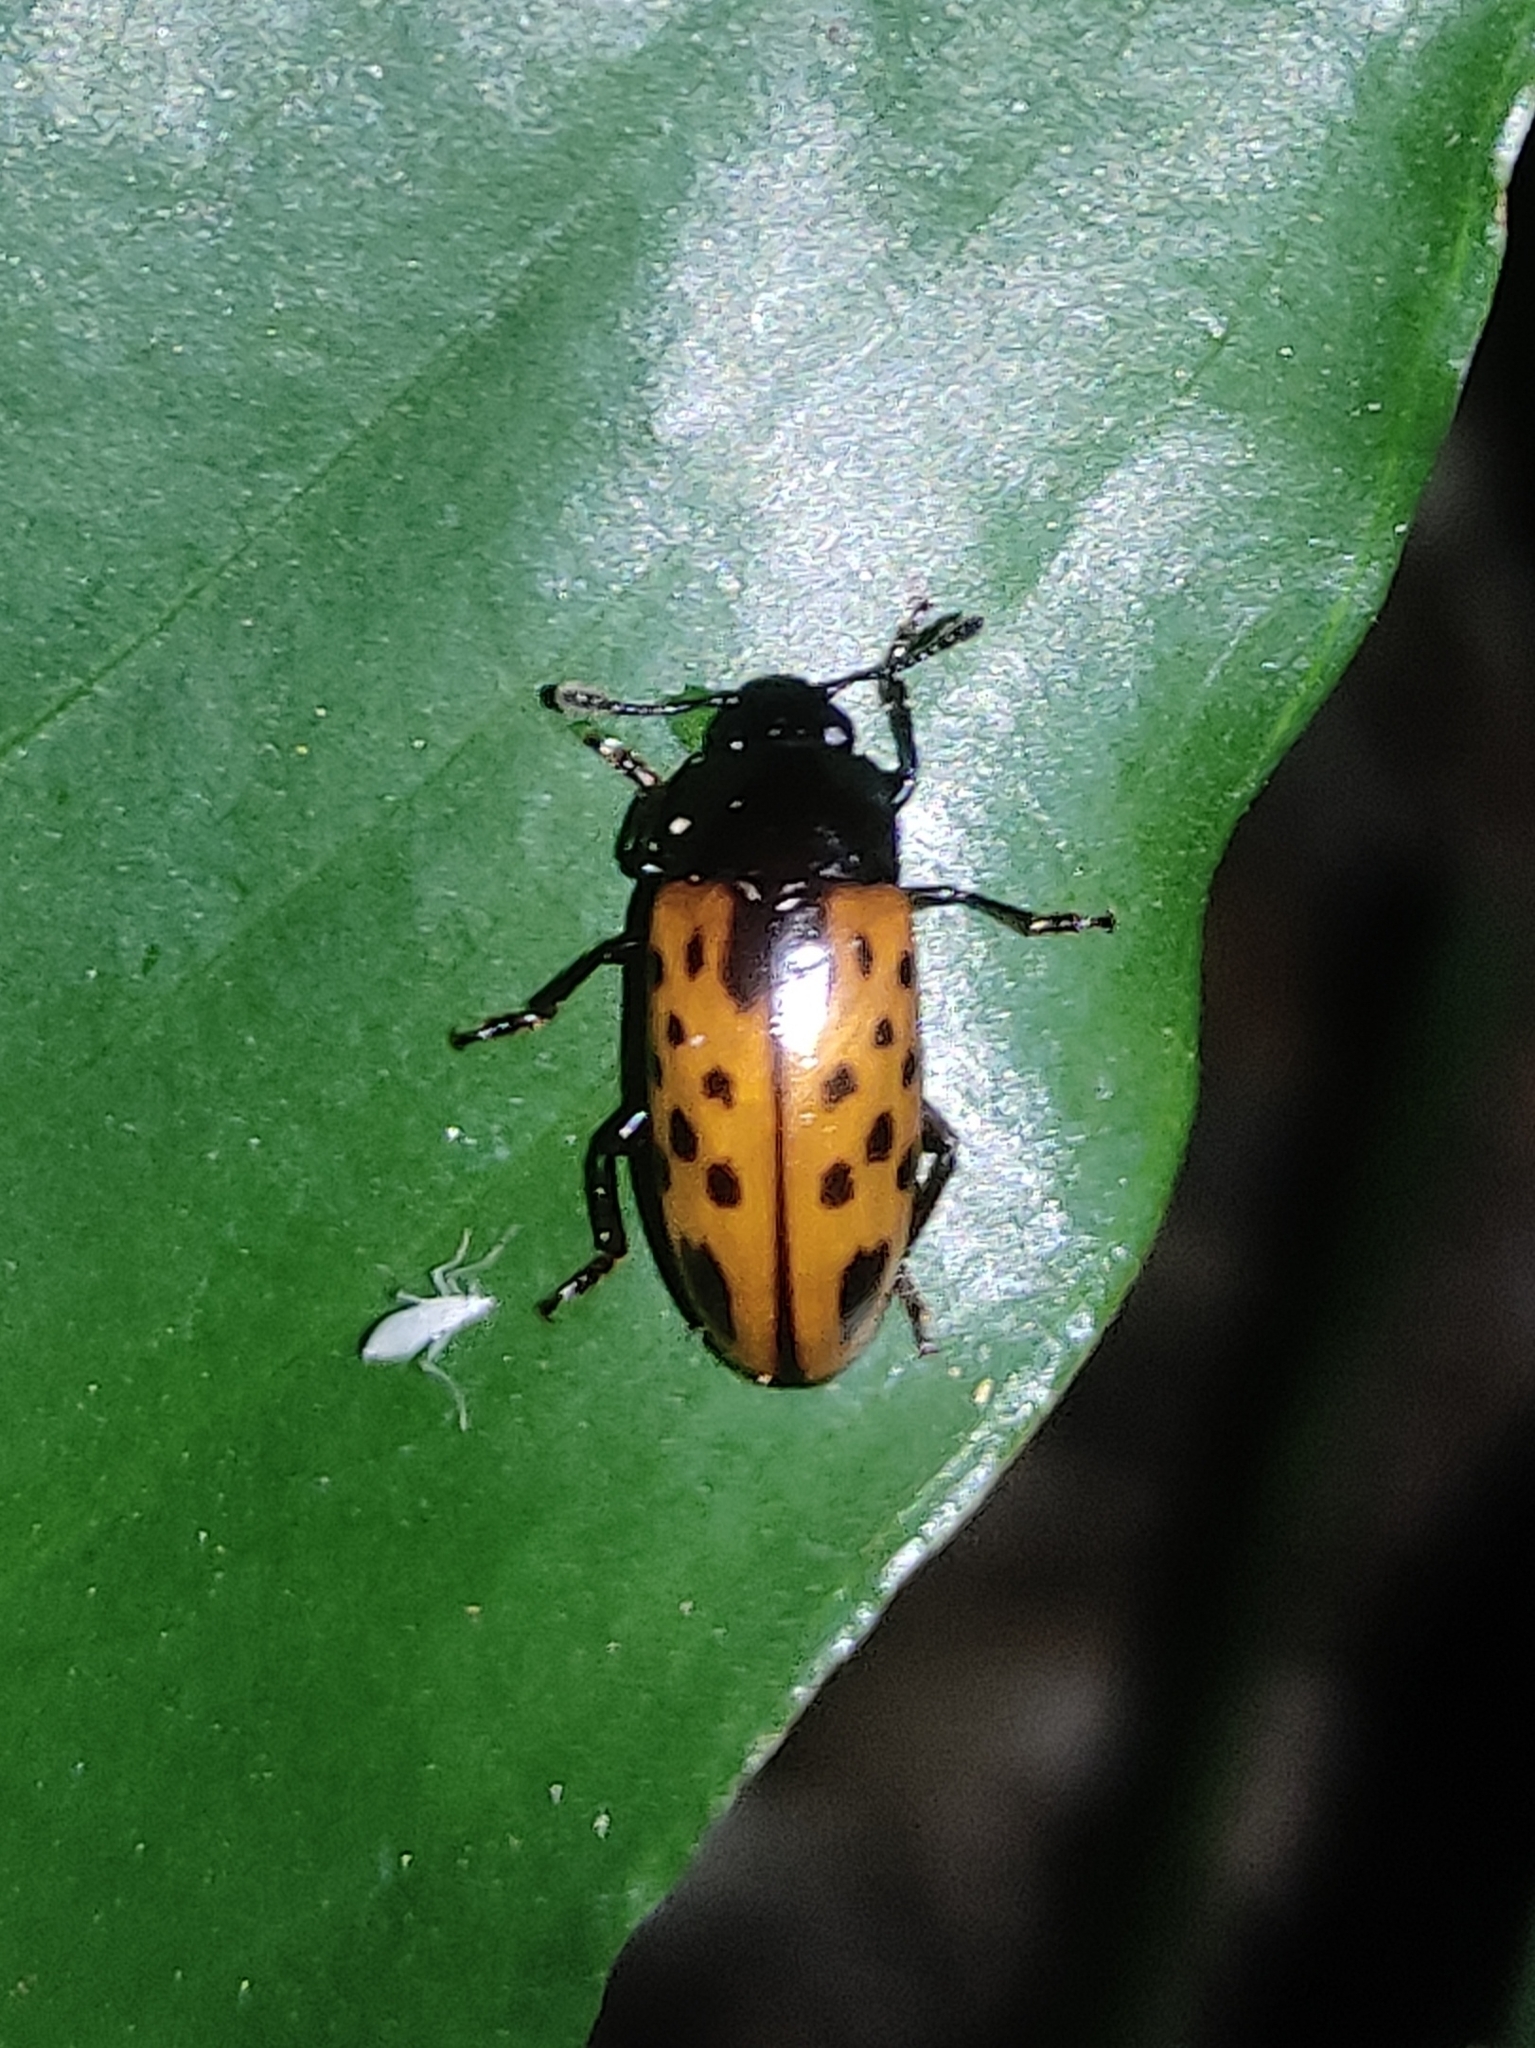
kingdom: Animalia
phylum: Arthropoda
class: Insecta
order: Coleoptera
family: Erotylidae
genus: Pselaphacus
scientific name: Pselaphacus signatus
